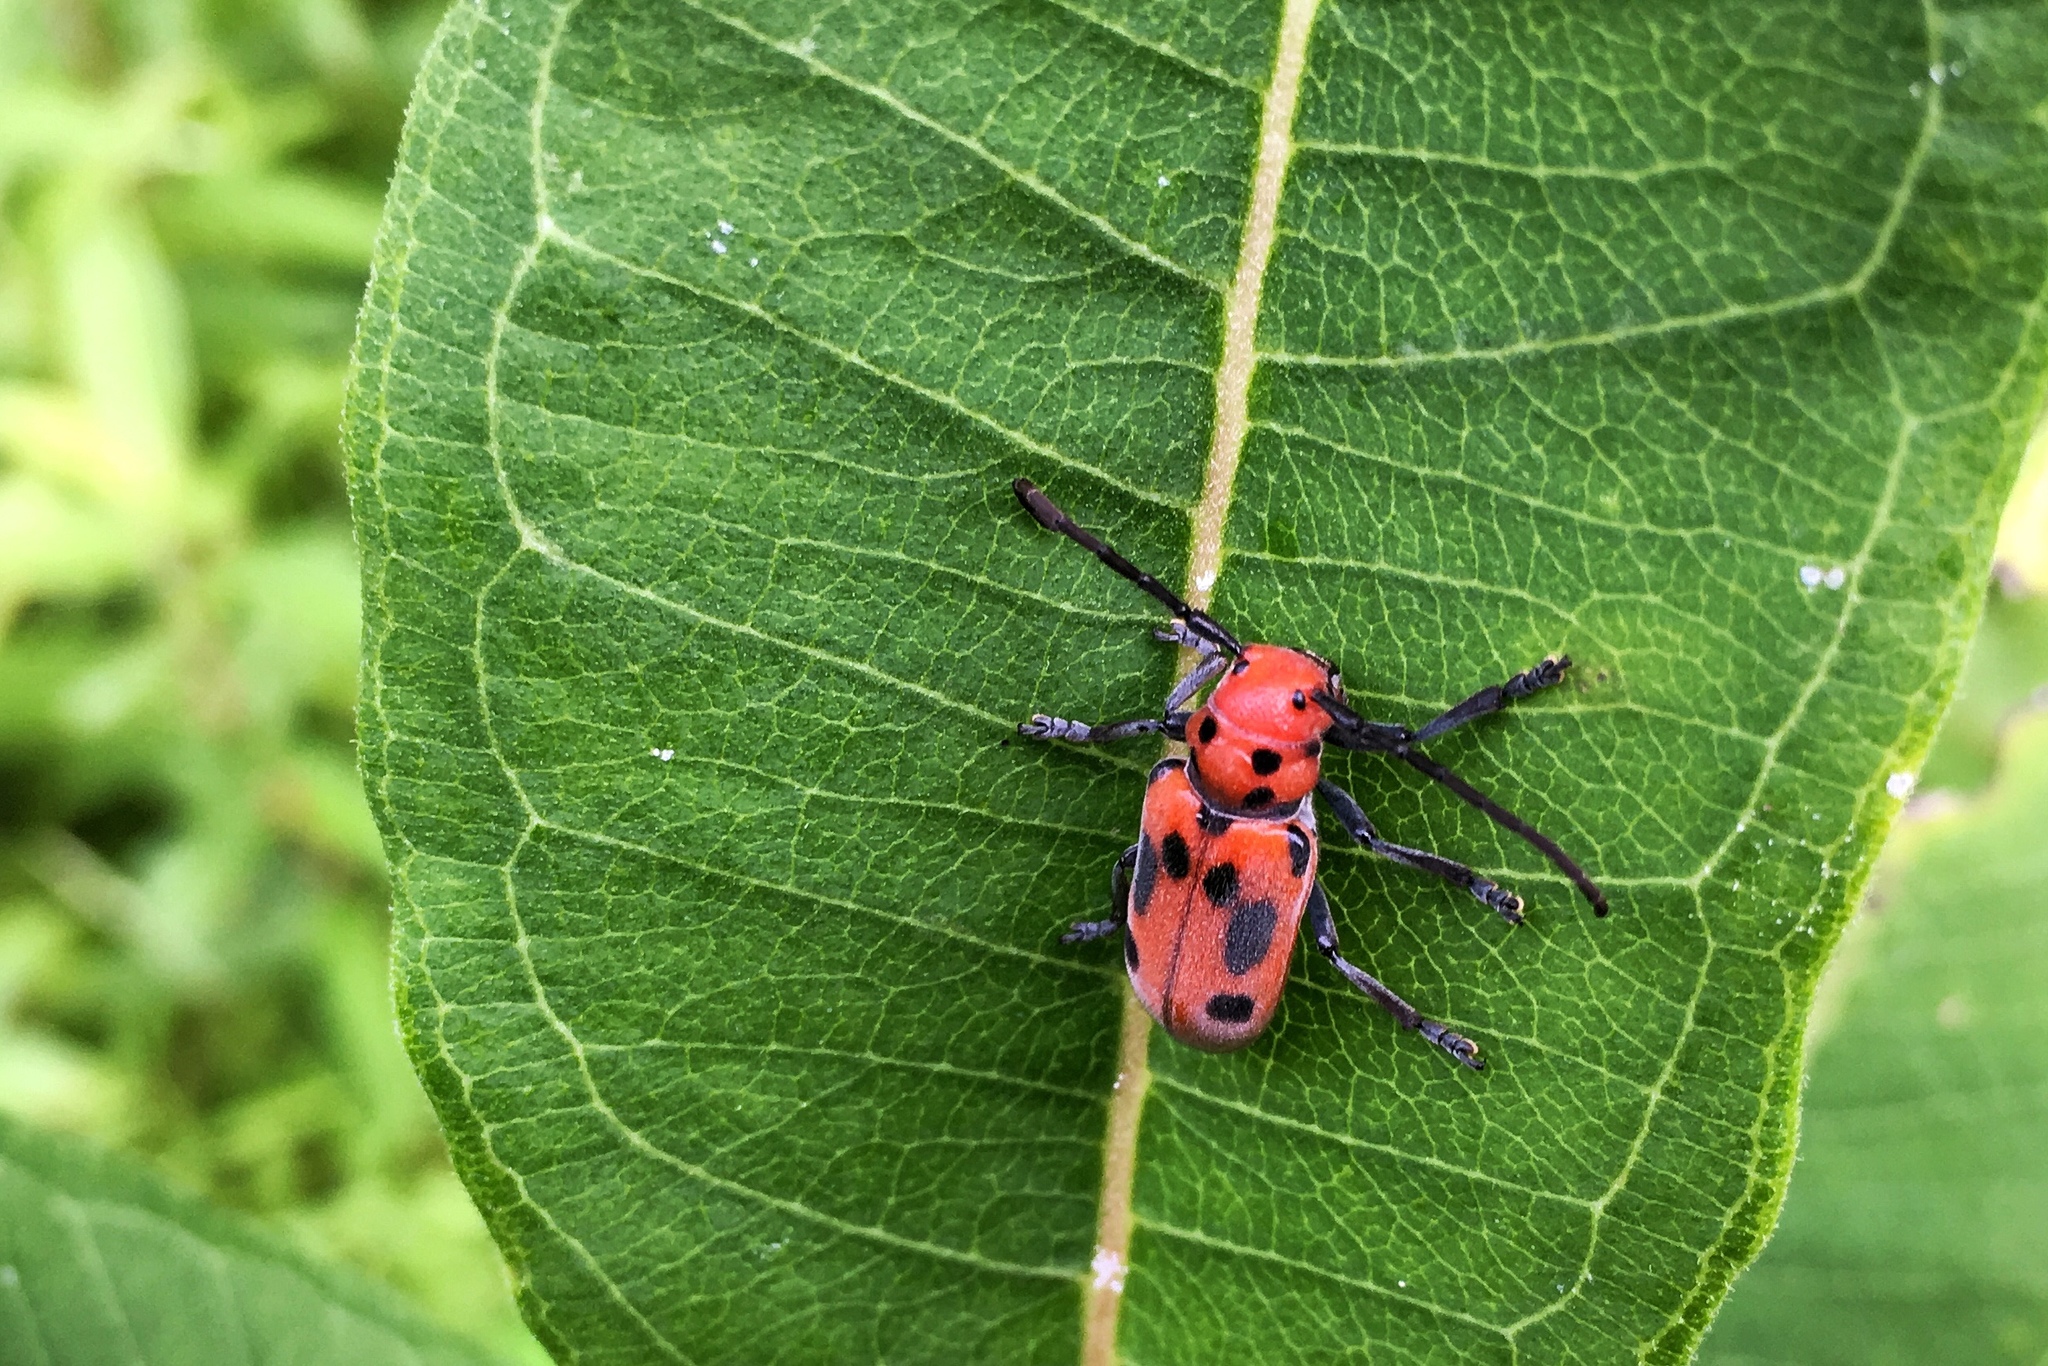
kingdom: Animalia
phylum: Arthropoda
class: Insecta
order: Coleoptera
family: Cerambycidae
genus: Tetraopes
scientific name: Tetraopes tetrophthalmus
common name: Red milkweed beetle
